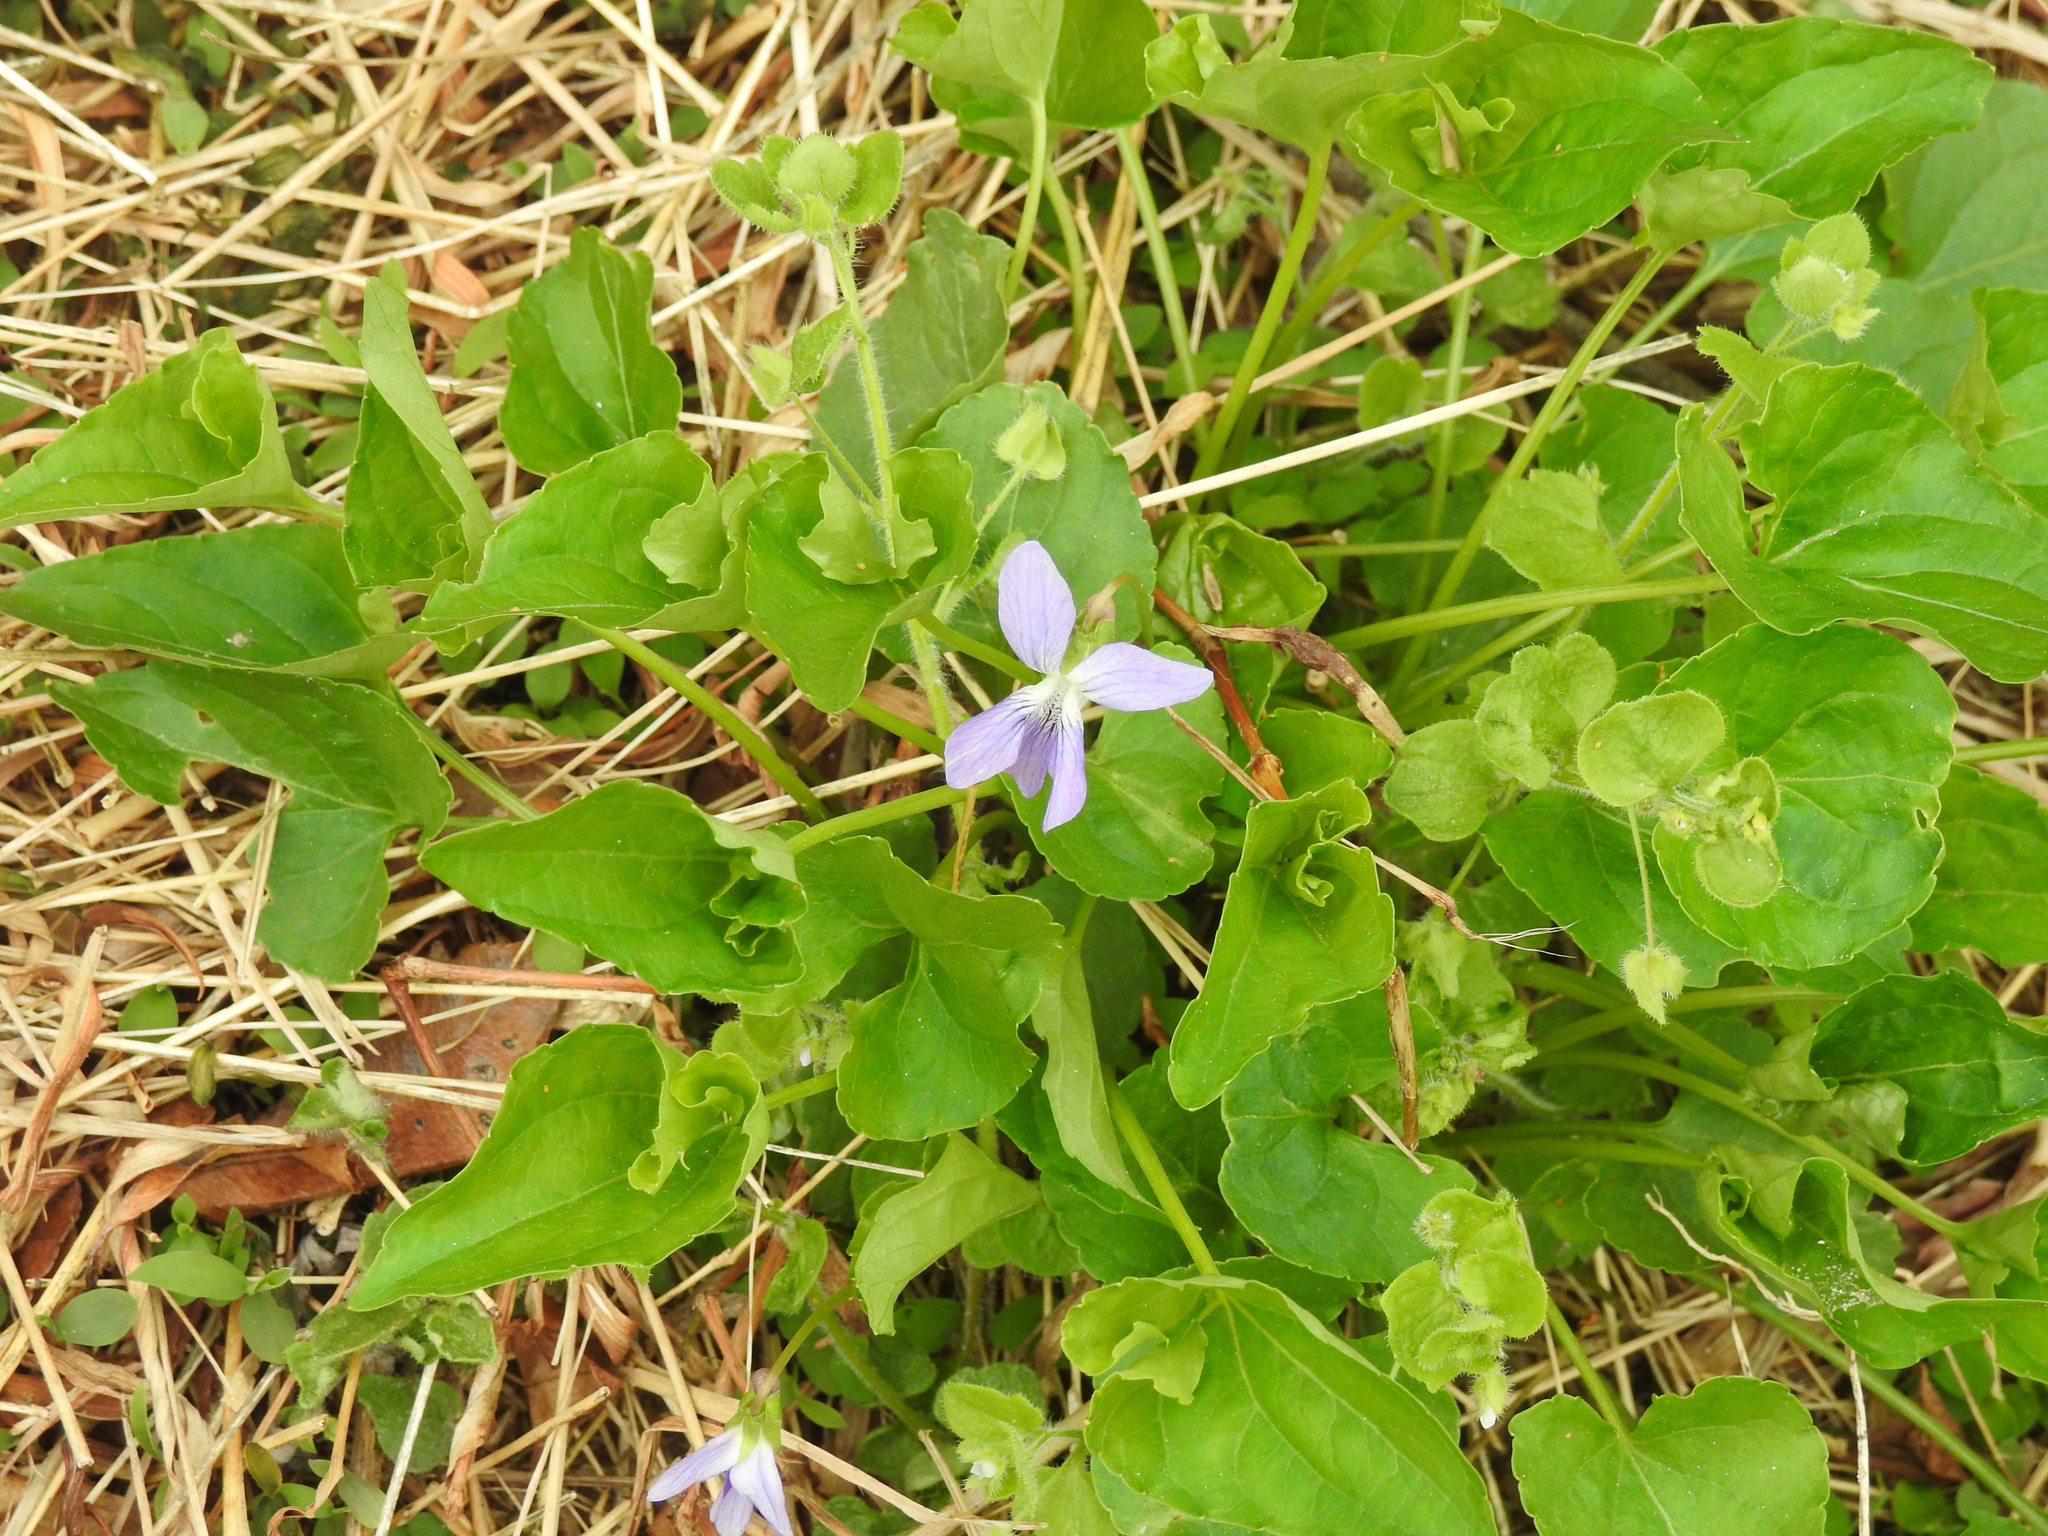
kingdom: Plantae
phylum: Tracheophyta
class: Magnoliopsida
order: Malpighiales
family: Violaceae
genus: Viola
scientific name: Viola sororia
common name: Dooryard violet
